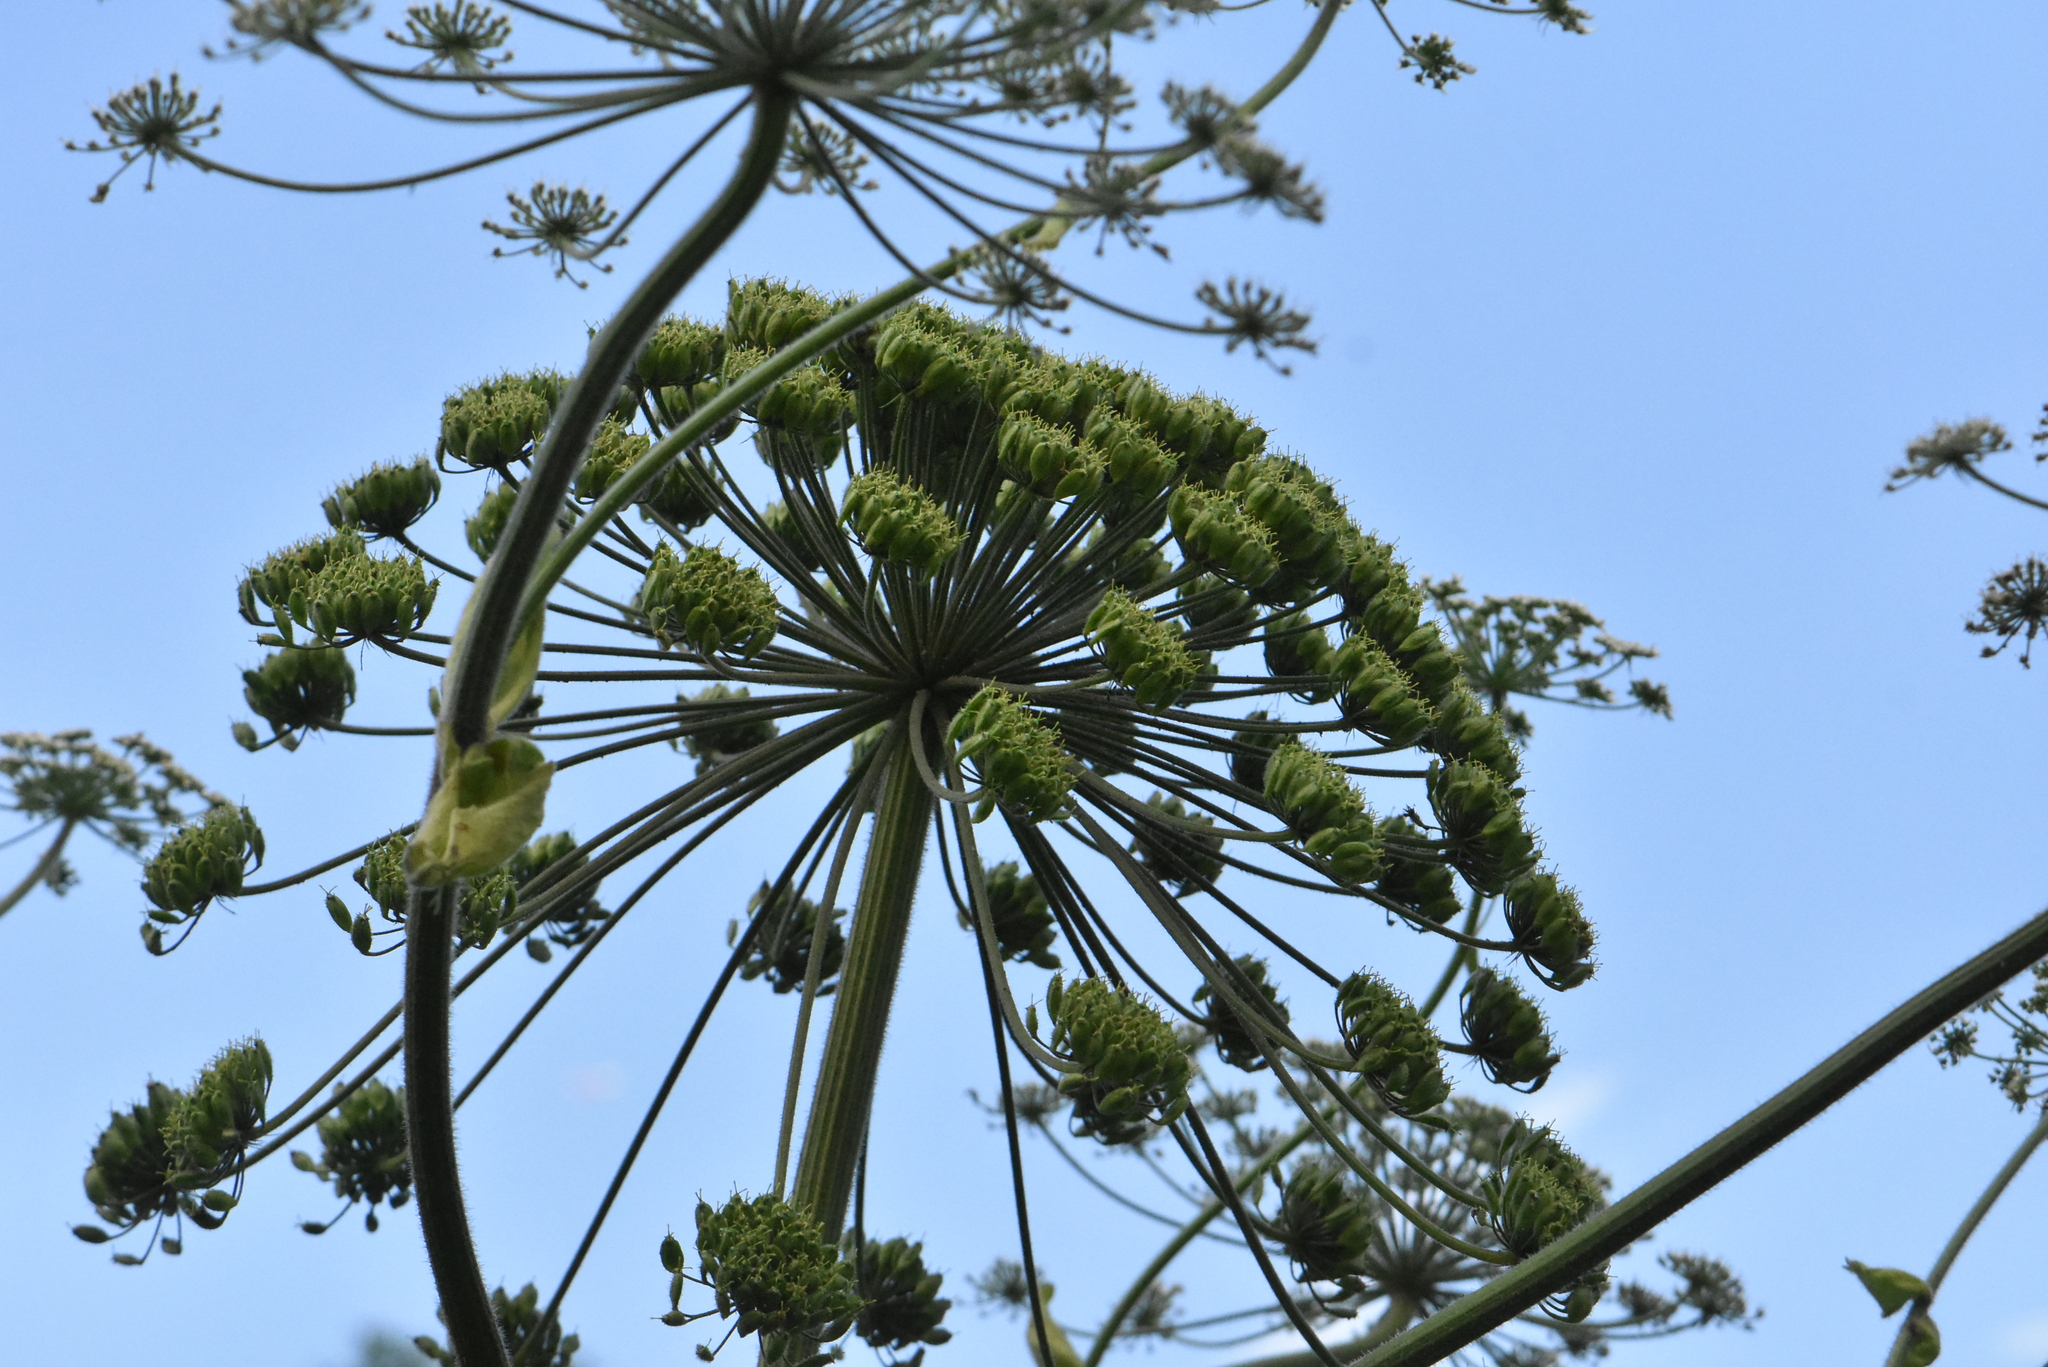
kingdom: Plantae
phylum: Tracheophyta
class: Magnoliopsida
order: Apiales
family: Apiaceae
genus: Heracleum
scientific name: Heracleum sphondylium
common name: Hogweed
